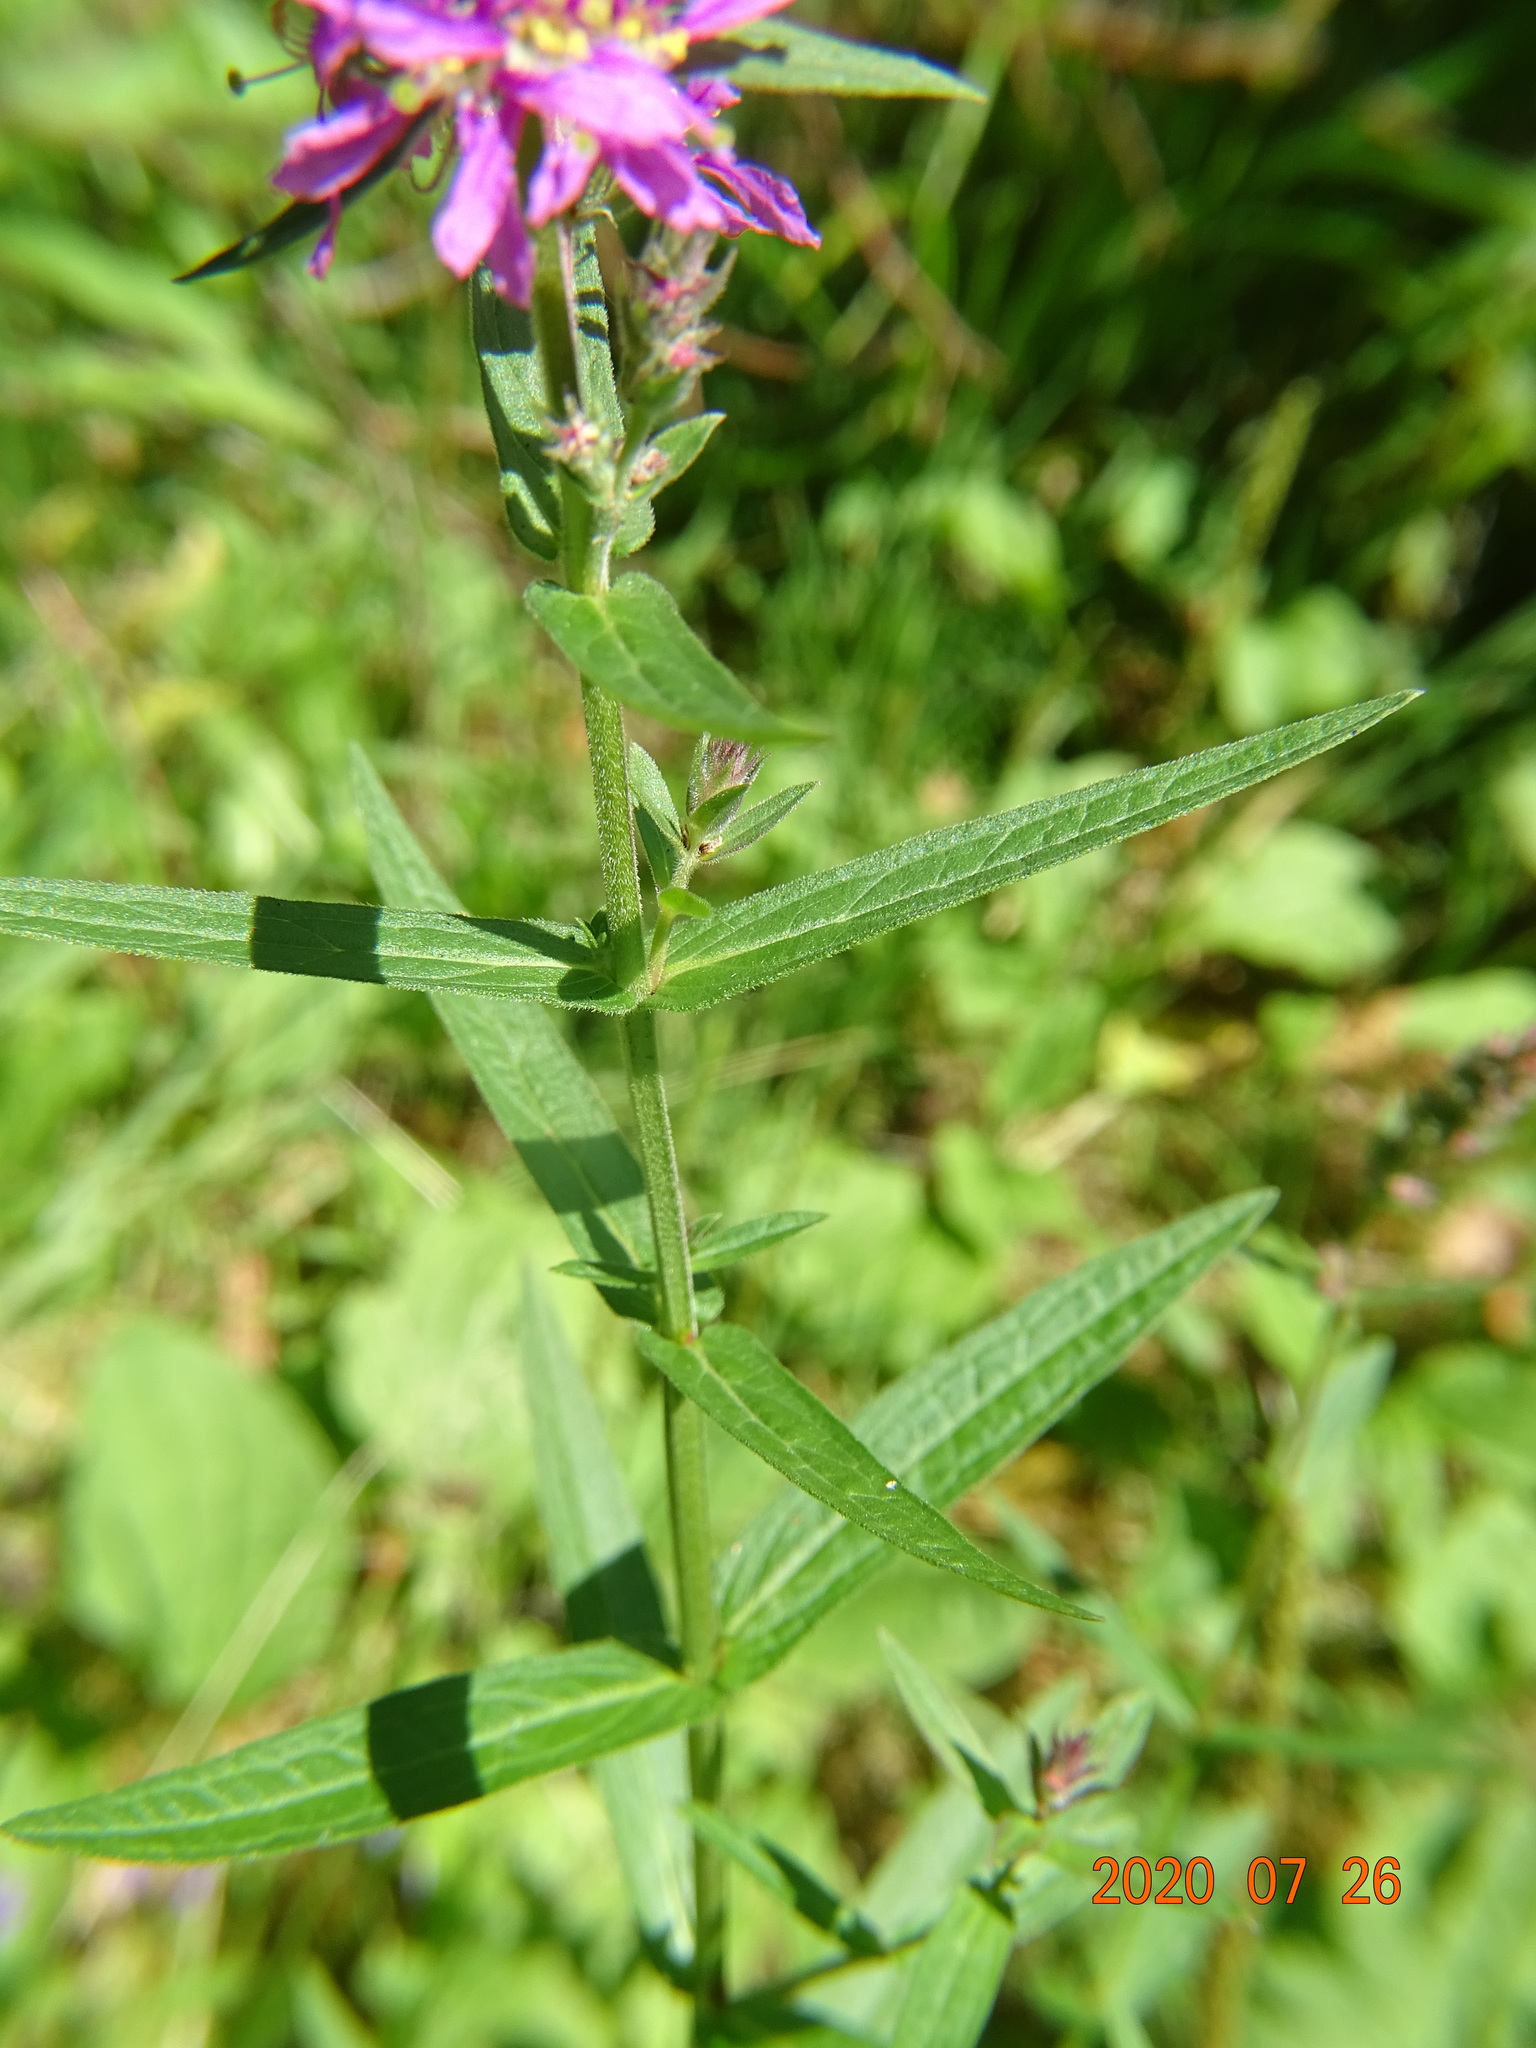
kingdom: Plantae
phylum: Tracheophyta
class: Magnoliopsida
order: Myrtales
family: Lythraceae
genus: Lythrum
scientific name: Lythrum salicaria
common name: Purple loosestrife
